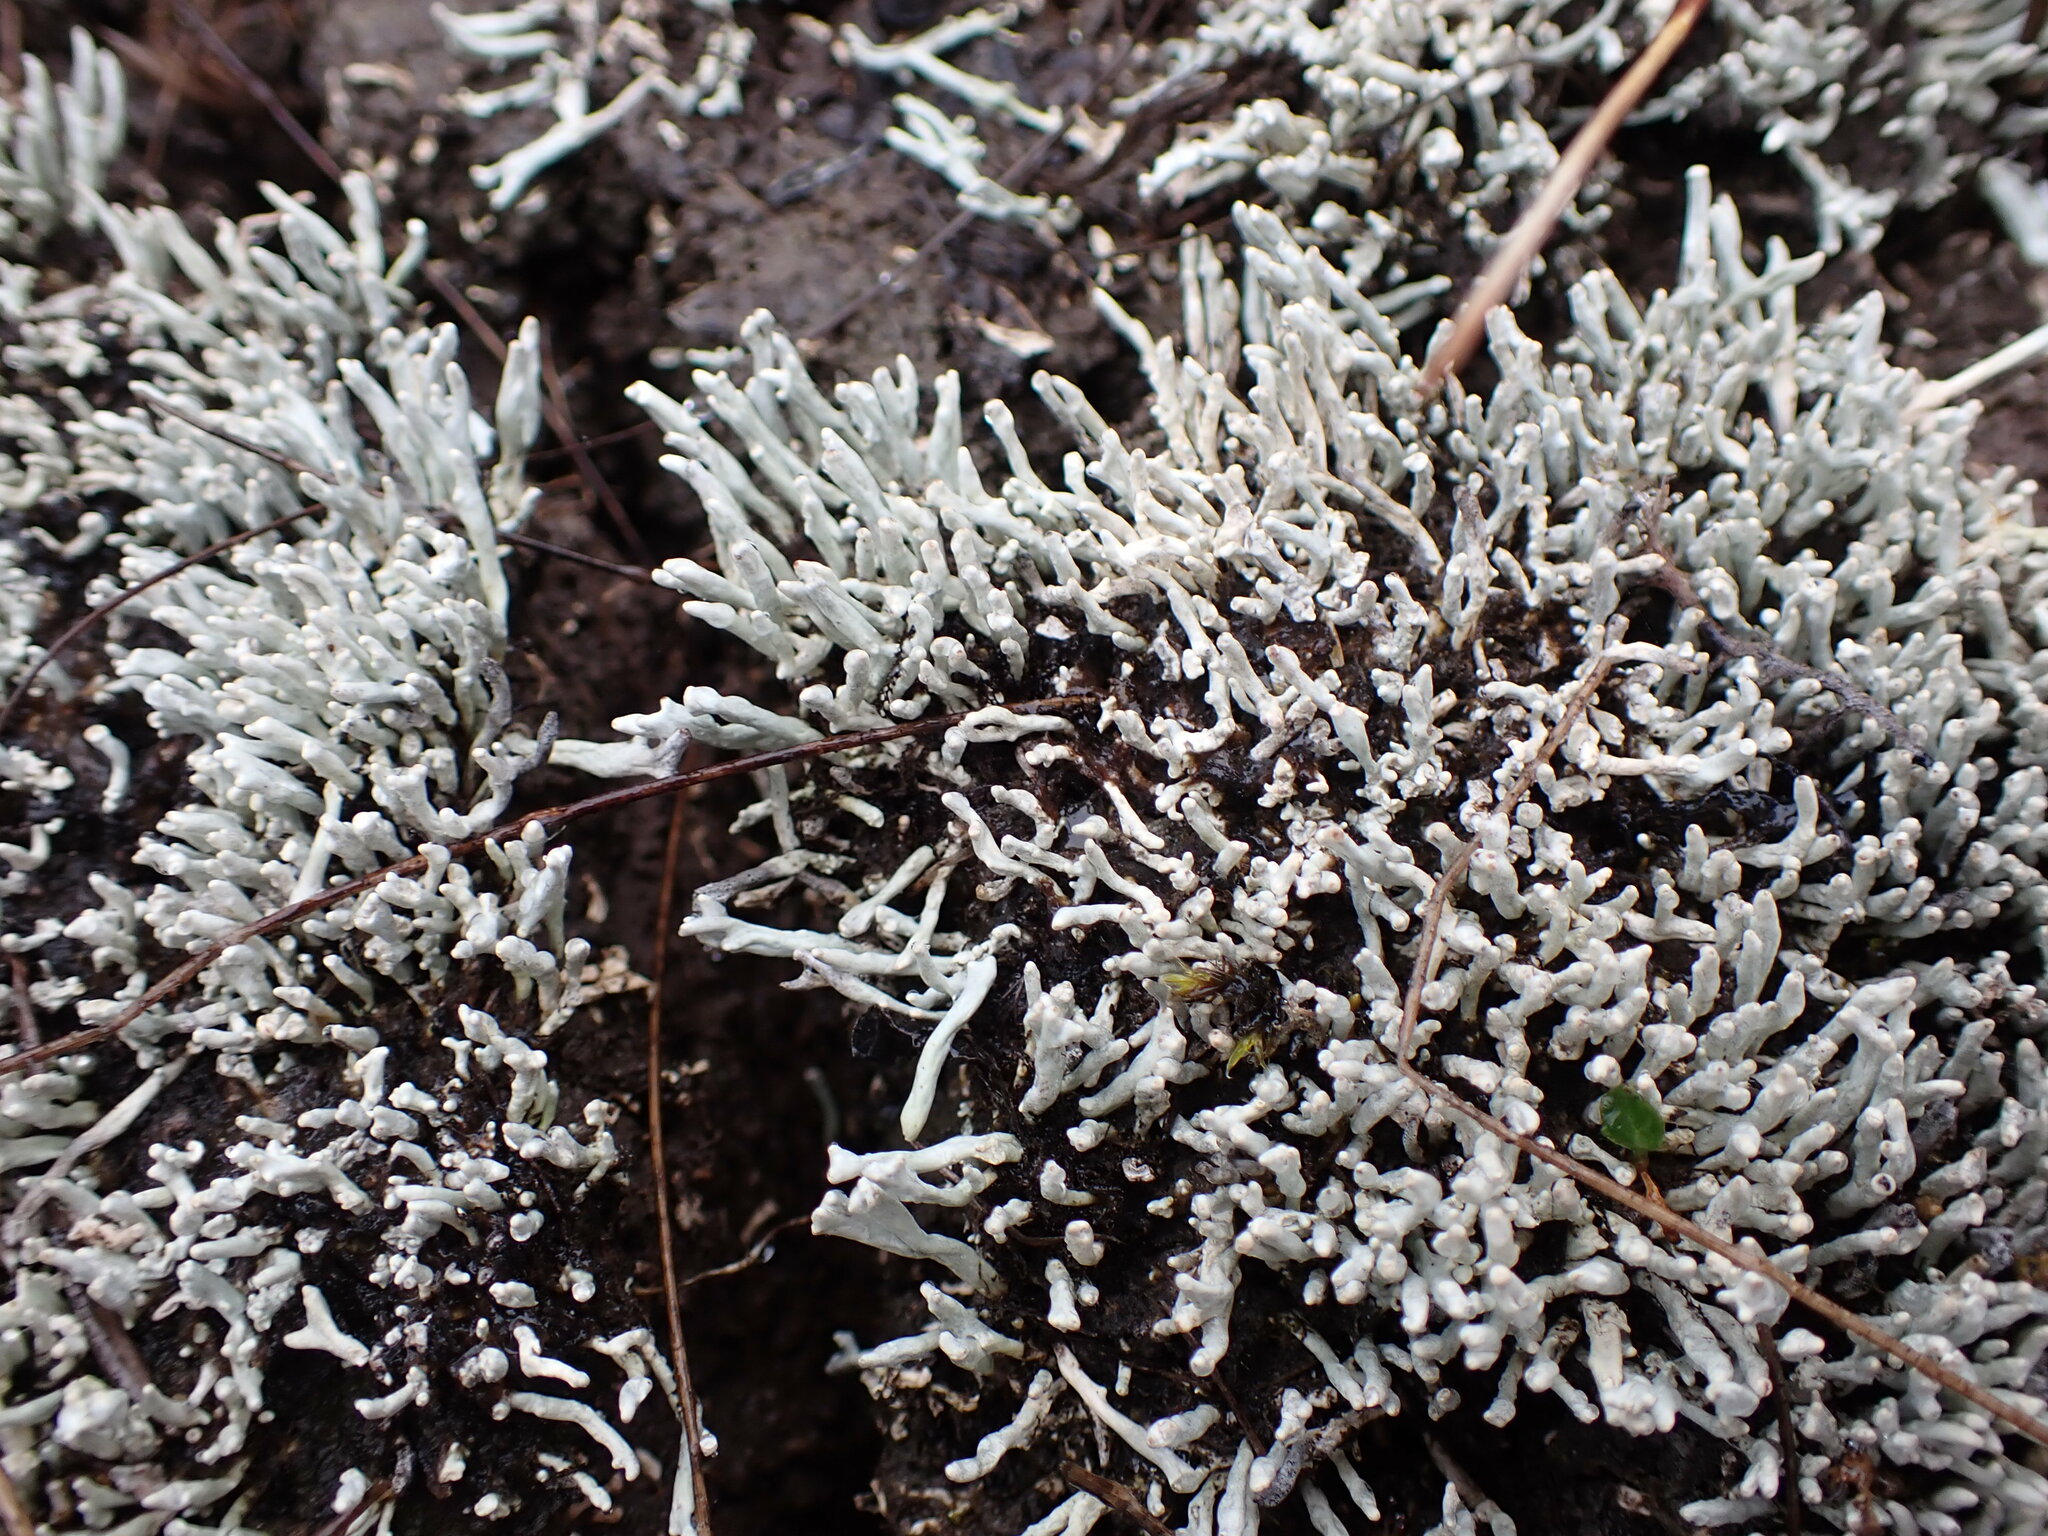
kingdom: Fungi
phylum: Ascomycota
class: Lecanoromycetes
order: Pertusariales
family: Icmadophilaceae
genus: Siphula
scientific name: Siphula ceratites
